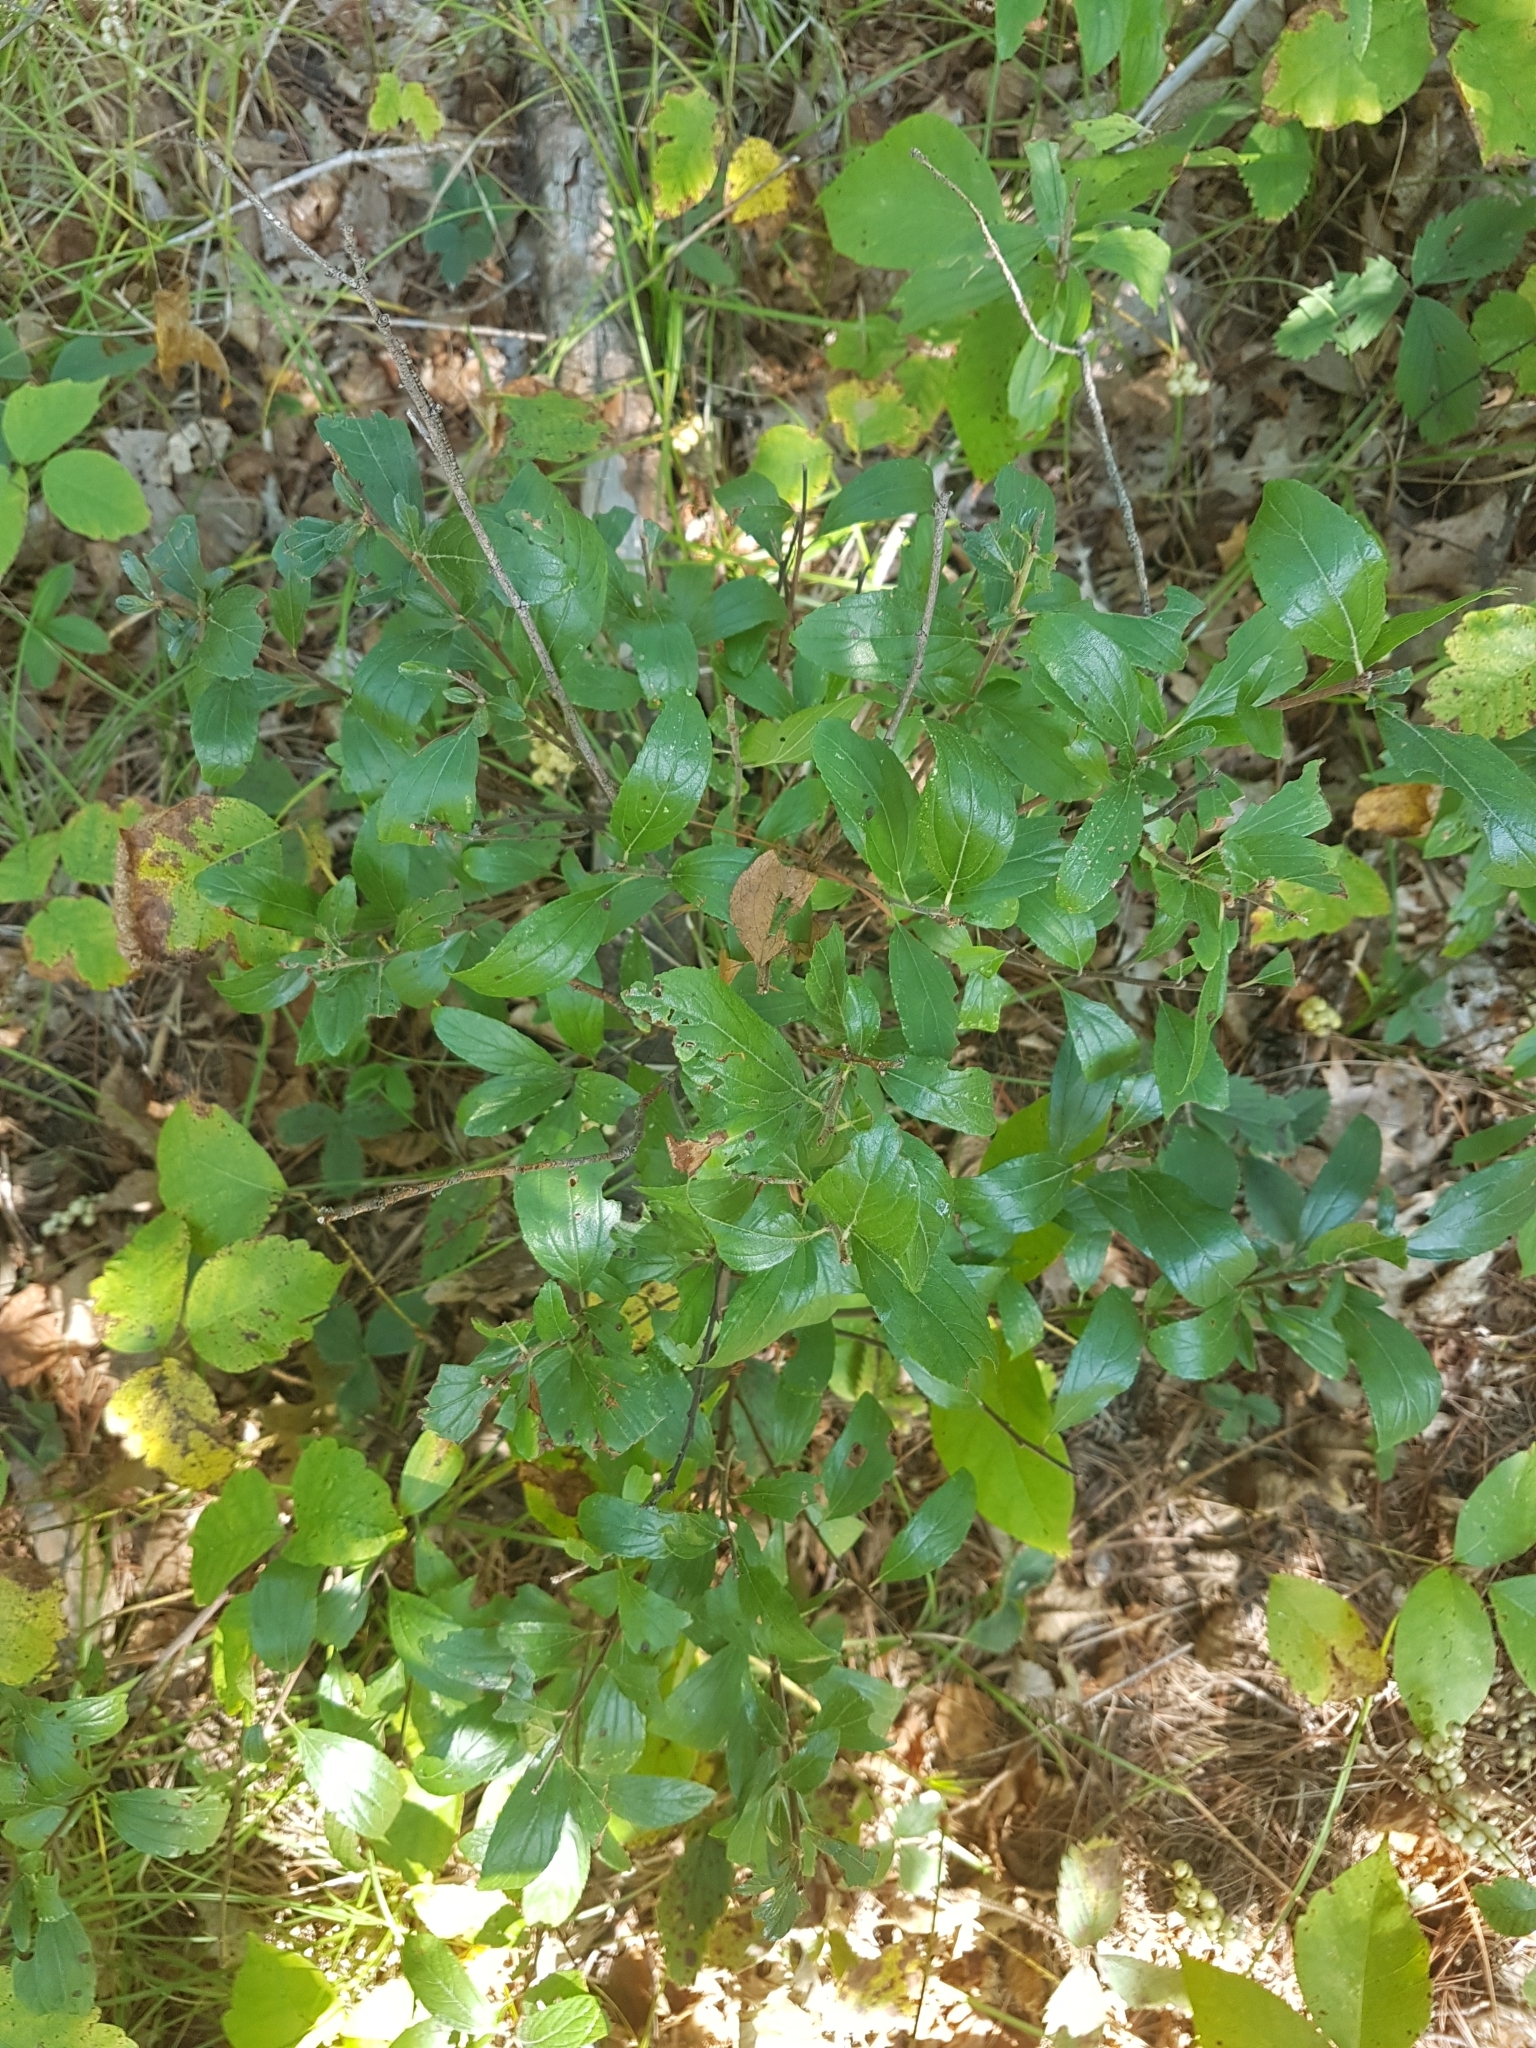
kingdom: Plantae
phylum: Tracheophyta
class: Magnoliopsida
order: Rosales
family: Rhamnaceae
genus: Ceanothus
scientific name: Ceanothus herbaceus
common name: Inland ceanothus
